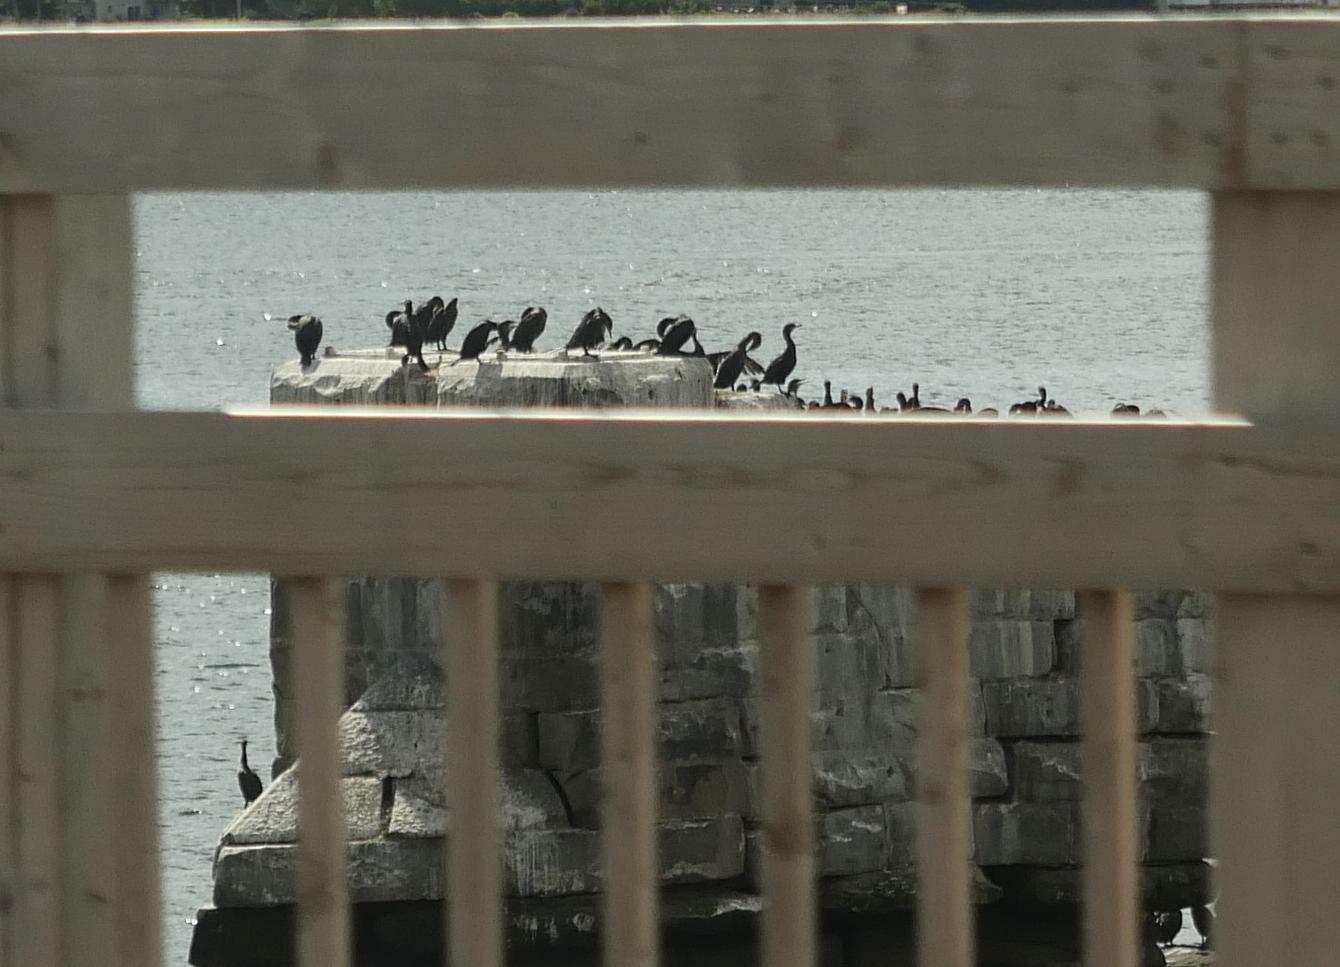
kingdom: Animalia
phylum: Chordata
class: Aves
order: Suliformes
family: Phalacrocoracidae
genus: Phalacrocorax
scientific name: Phalacrocorax auritus
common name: Double-crested cormorant
